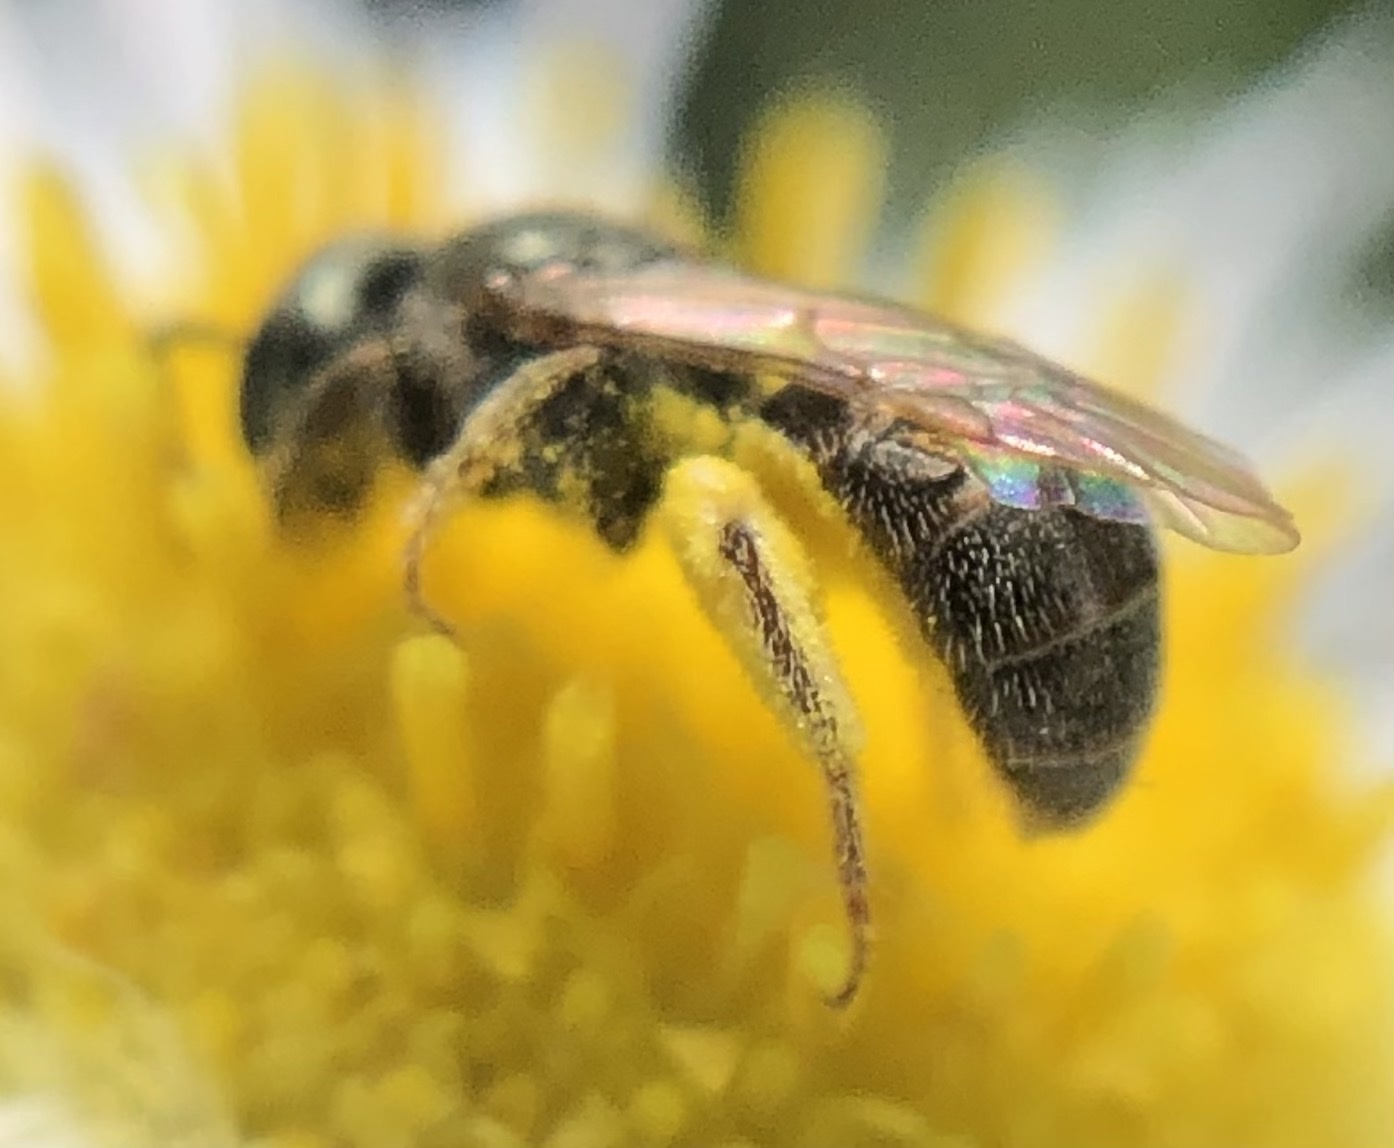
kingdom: Animalia
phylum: Arthropoda
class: Insecta
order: Hymenoptera
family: Halictidae
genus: Lasioglossum
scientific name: Lasioglossum imitatum
